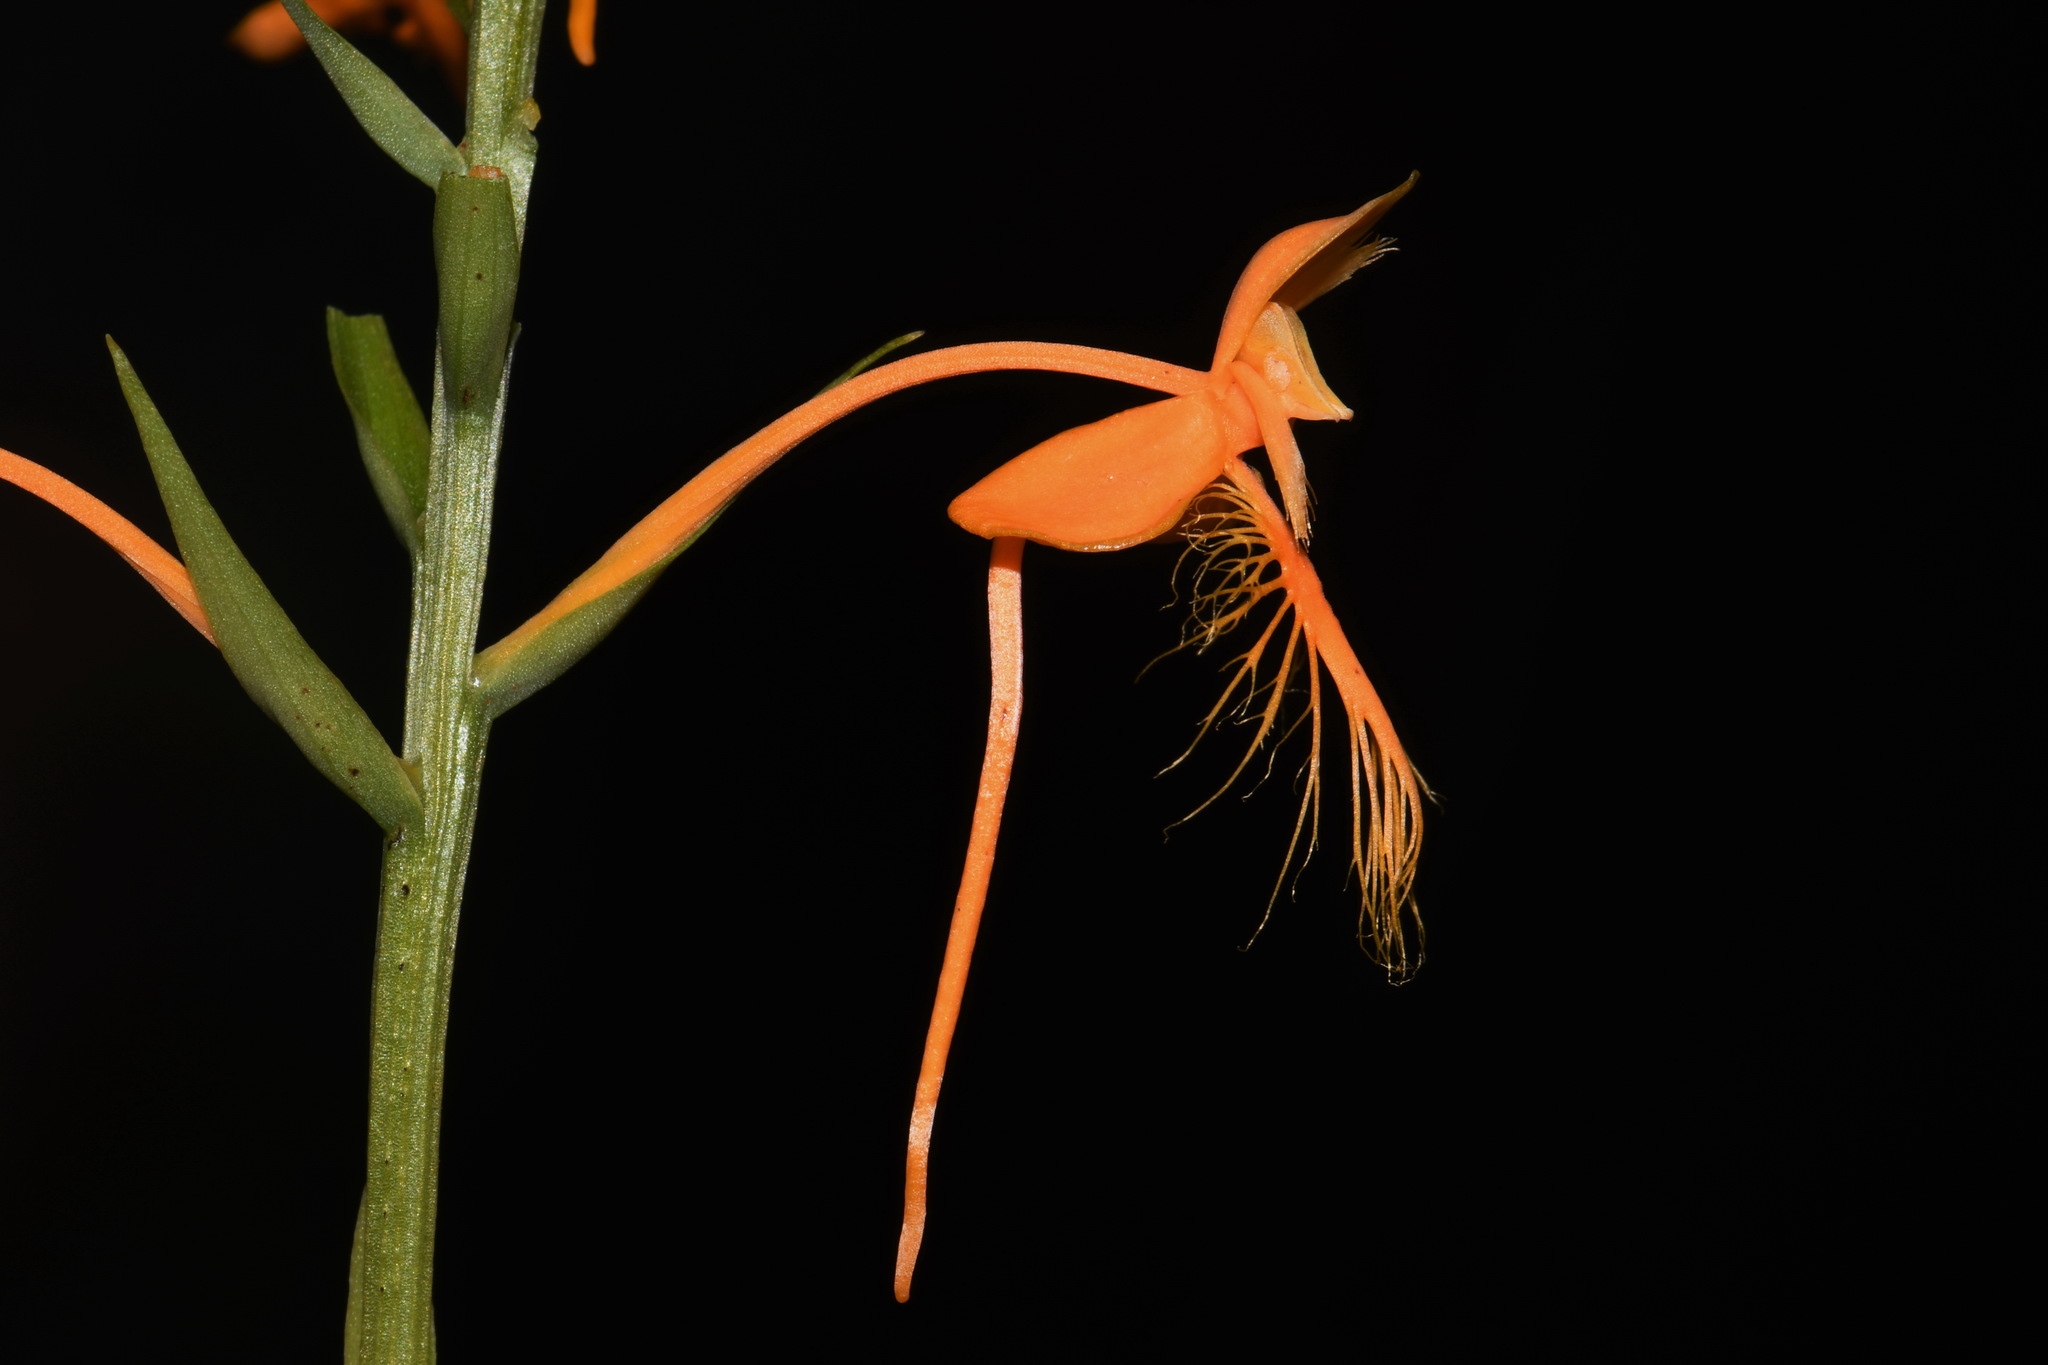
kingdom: Plantae
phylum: Tracheophyta
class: Liliopsida
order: Asparagales
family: Orchidaceae
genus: Platanthera
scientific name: Platanthera ciliaris
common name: Yellow fringed orchid
